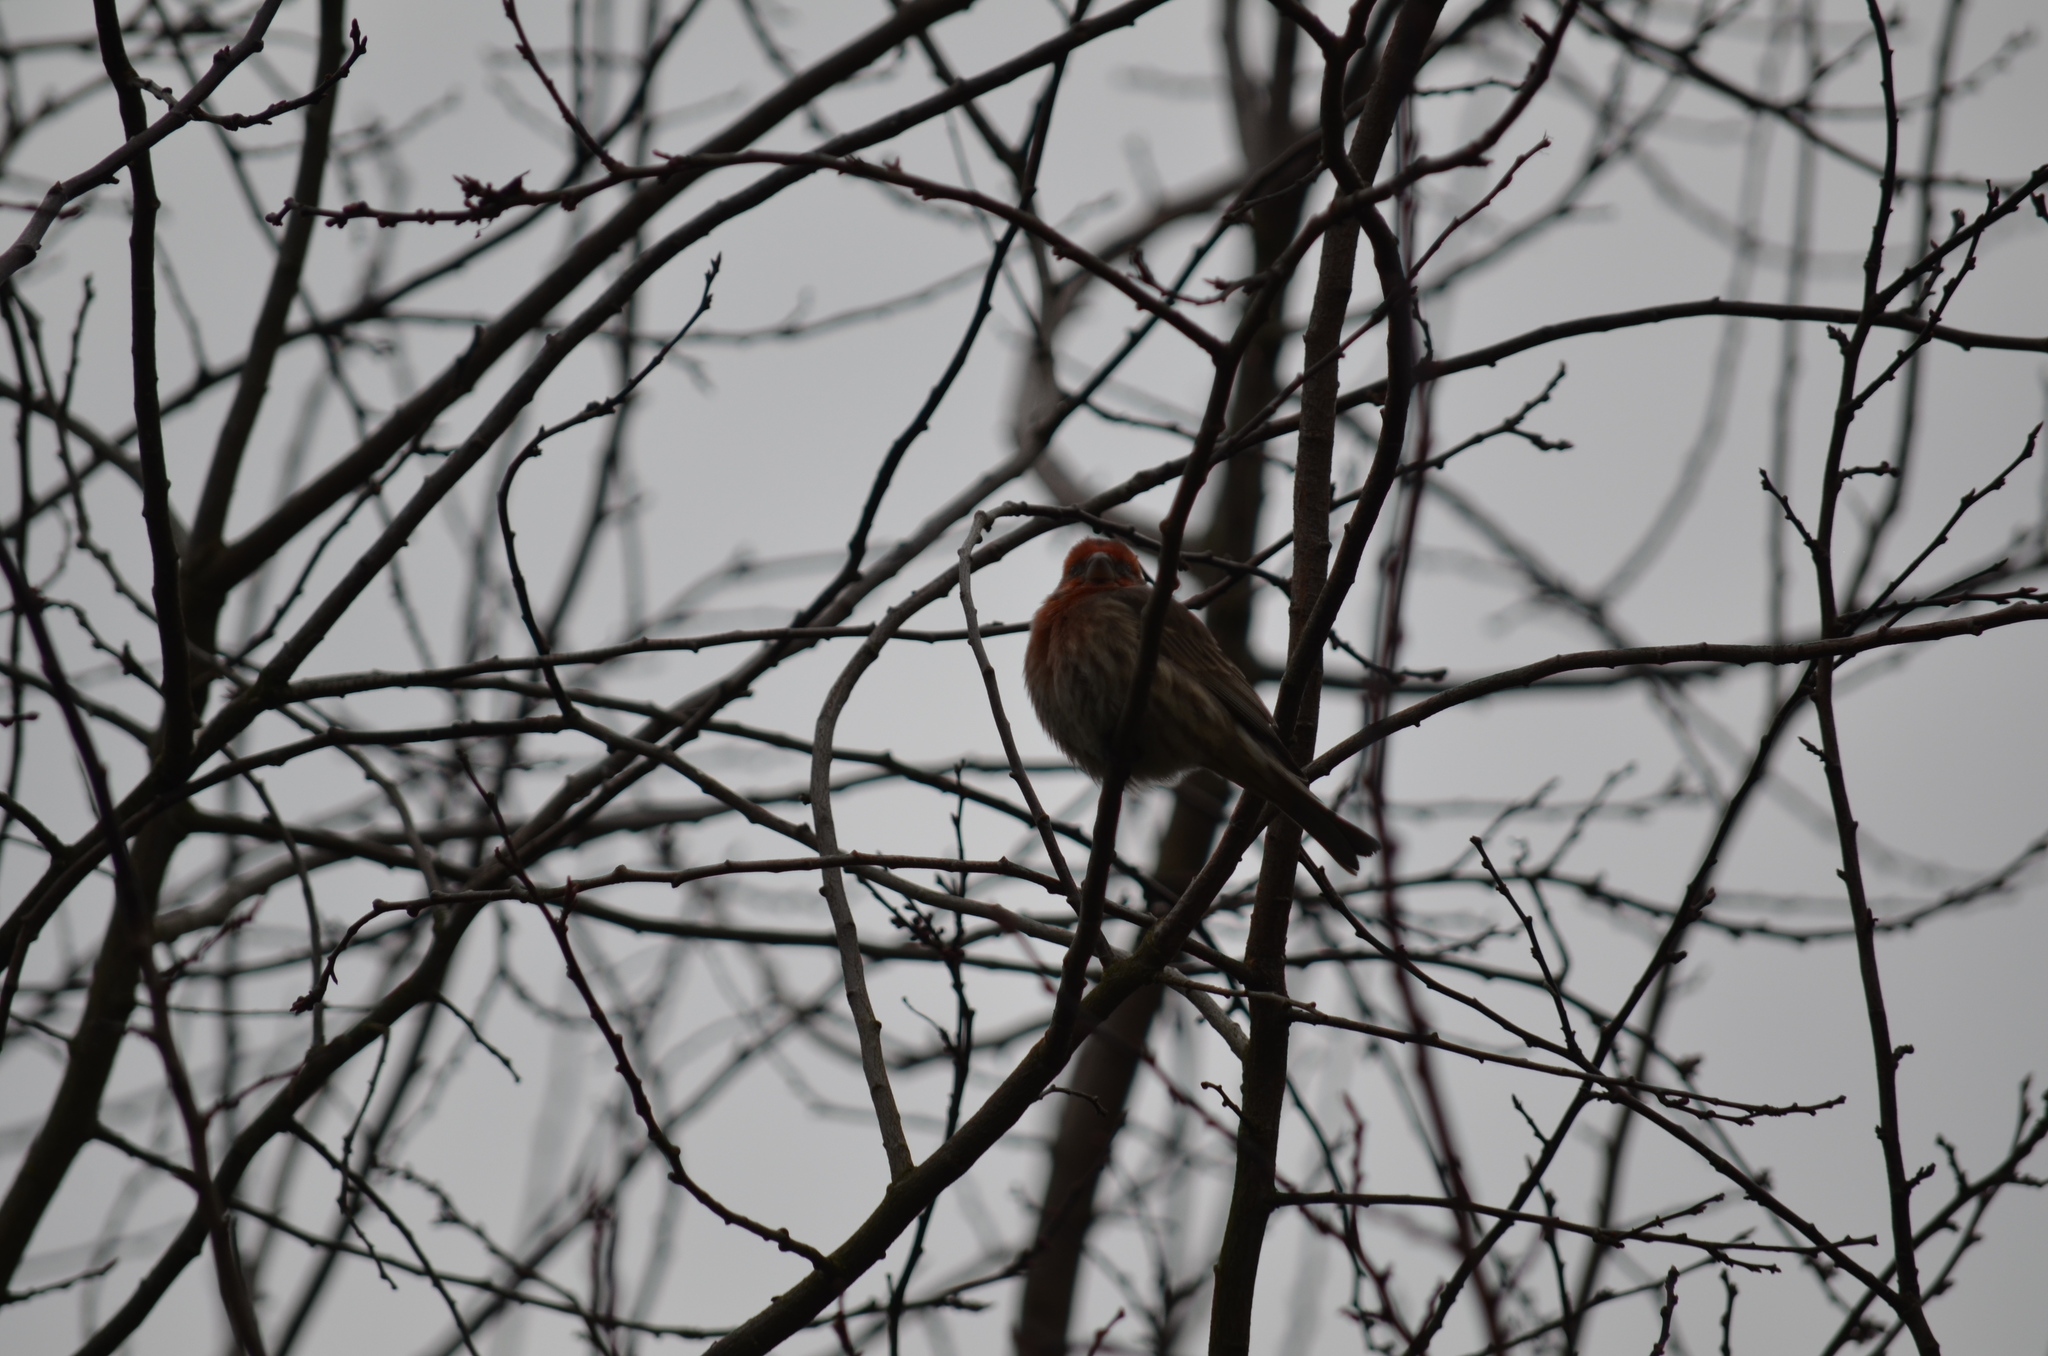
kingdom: Animalia
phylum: Chordata
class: Aves
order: Passeriformes
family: Fringillidae
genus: Haemorhous
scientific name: Haemorhous mexicanus
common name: House finch
